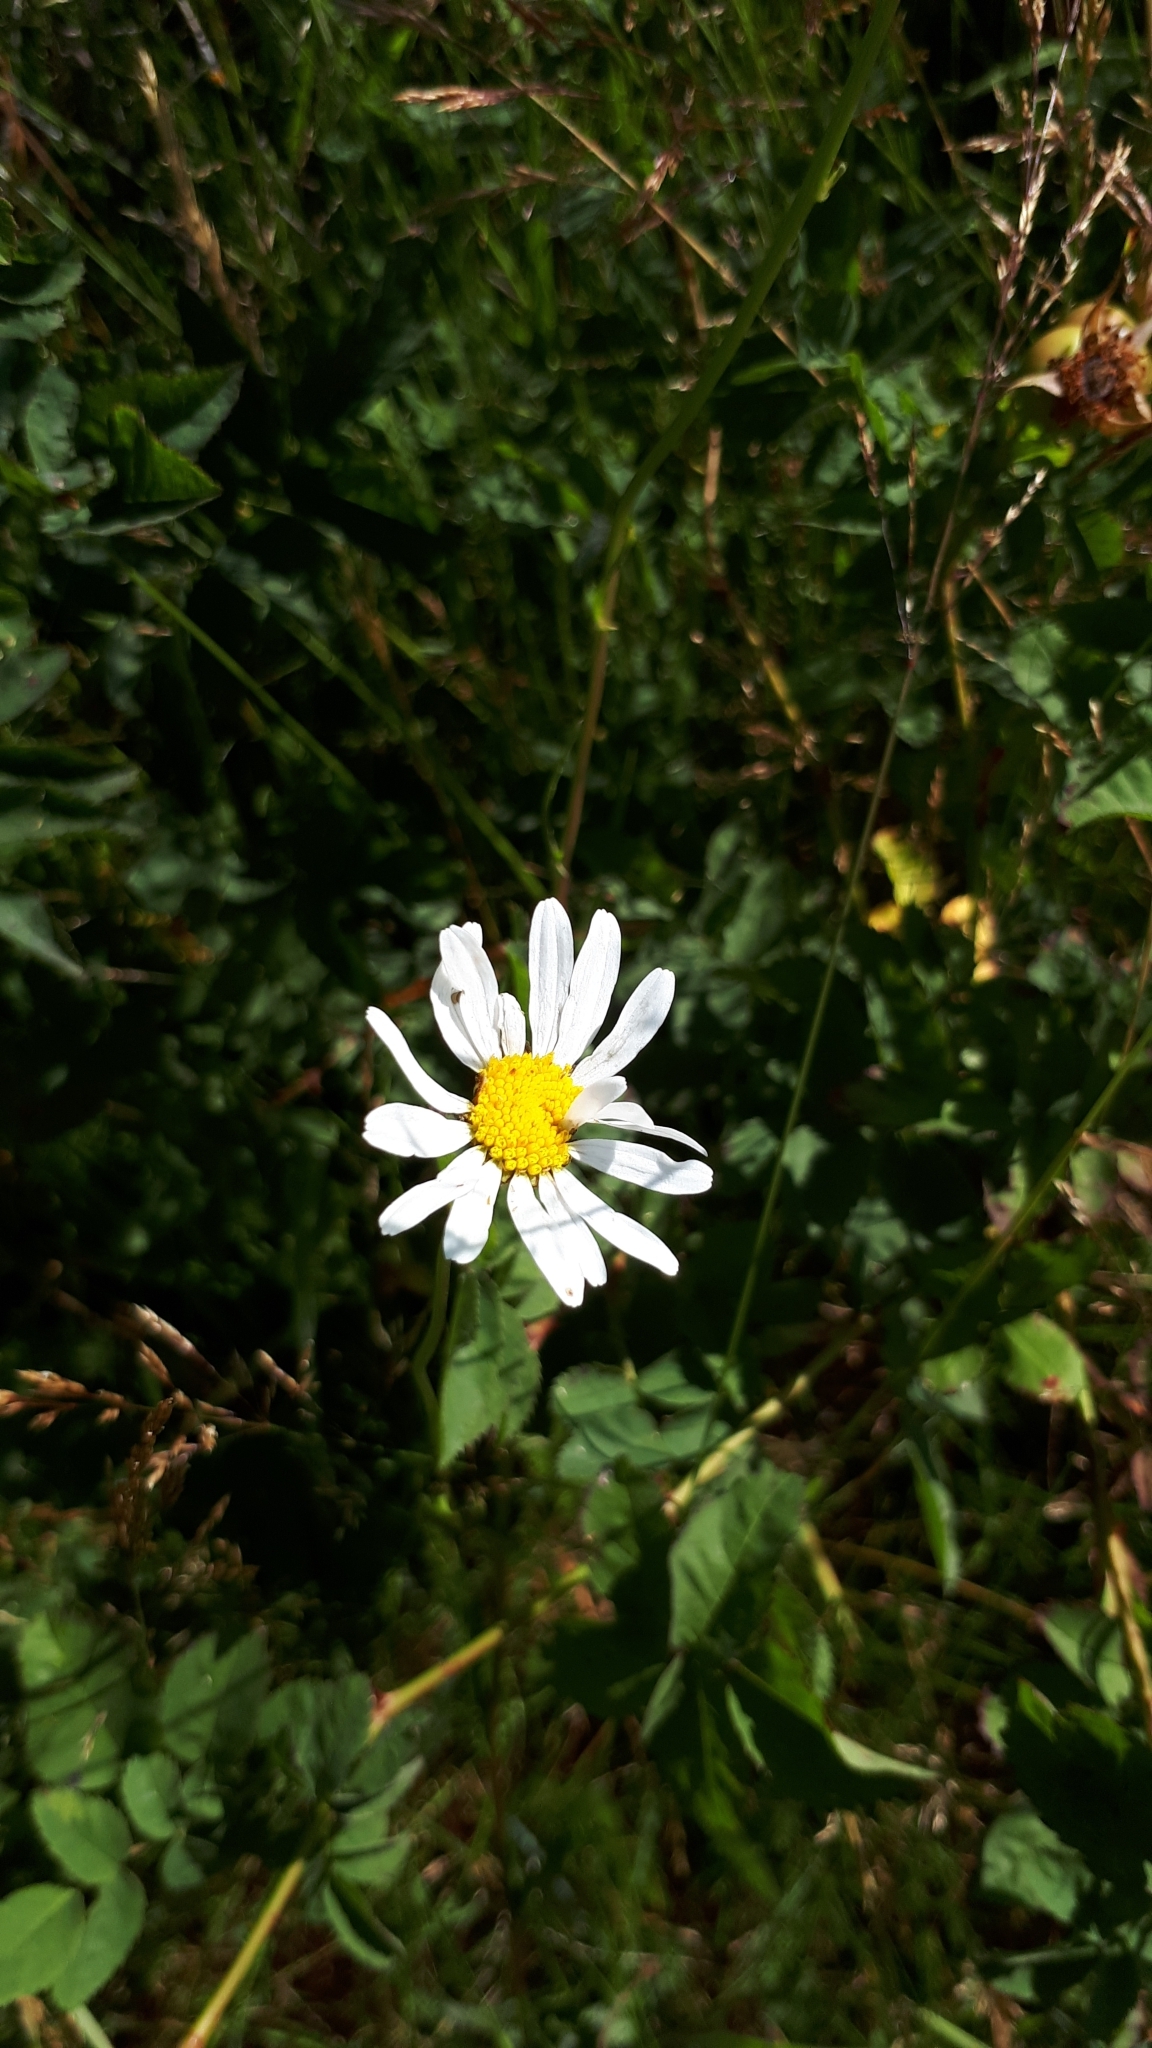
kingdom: Plantae
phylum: Tracheophyta
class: Magnoliopsida
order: Asterales
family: Asteraceae
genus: Leucanthemum
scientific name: Leucanthemum vulgare
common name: Oxeye daisy
